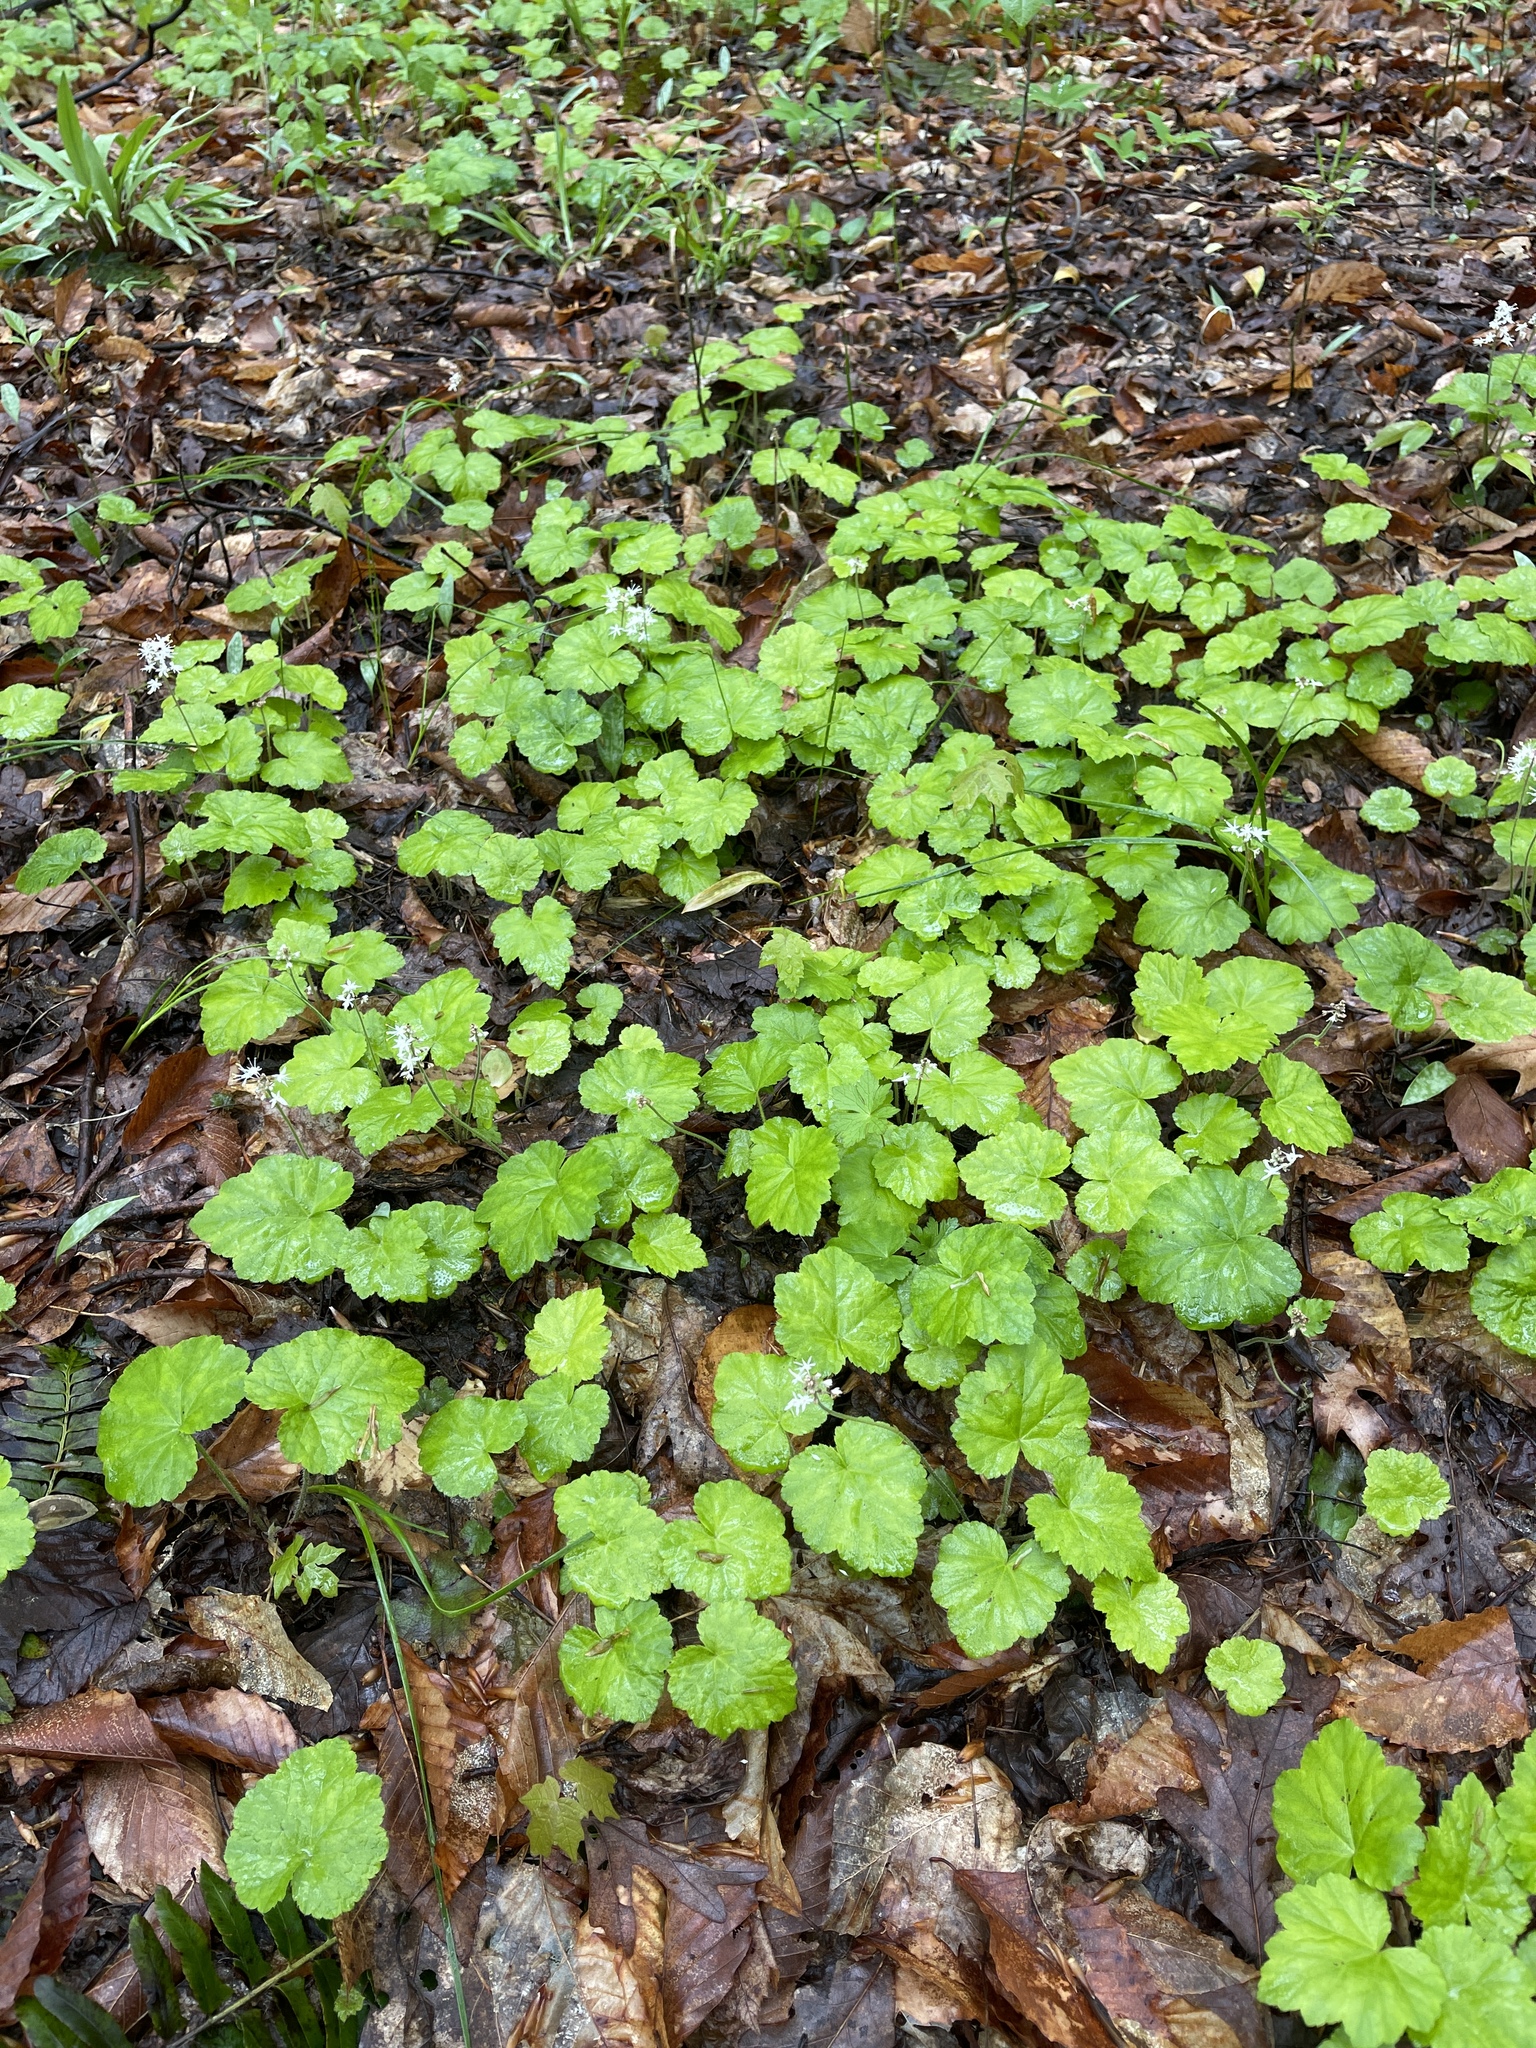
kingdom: Plantae
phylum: Tracheophyta
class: Magnoliopsida
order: Saxifragales
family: Saxifragaceae
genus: Tiarella
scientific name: Tiarella stolonifera
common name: Stoloniferous foamflower
